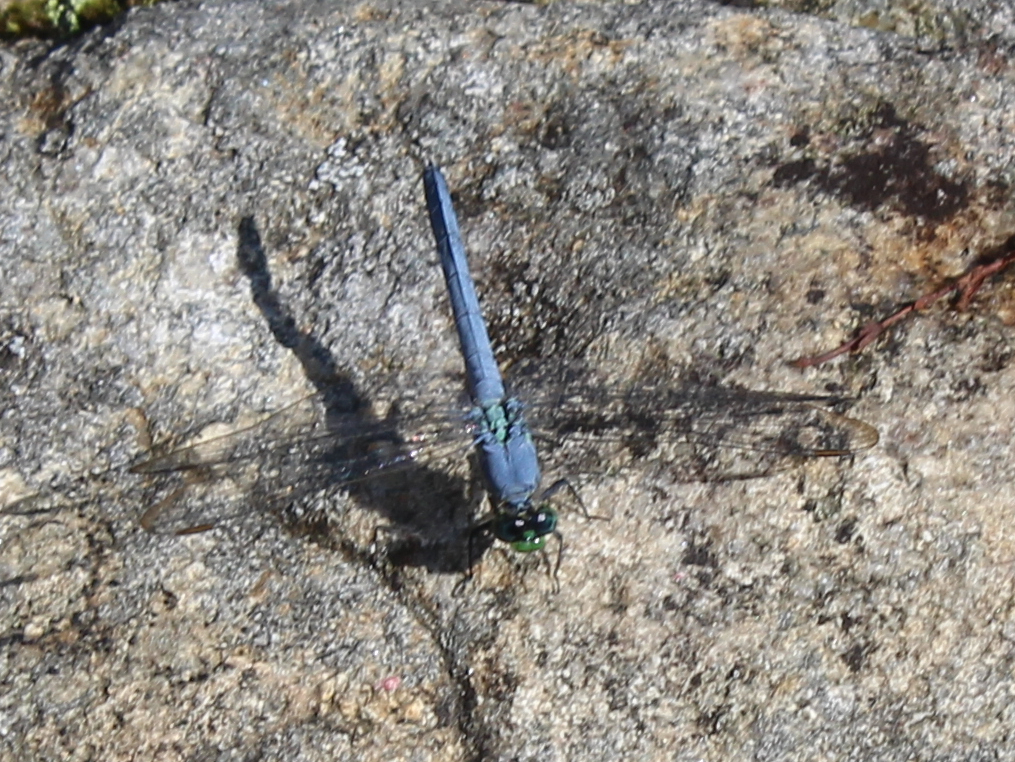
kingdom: Animalia
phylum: Arthropoda
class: Insecta
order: Odonata
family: Libellulidae
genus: Erythemis
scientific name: Erythemis simplicicollis
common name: Eastern pondhawk
